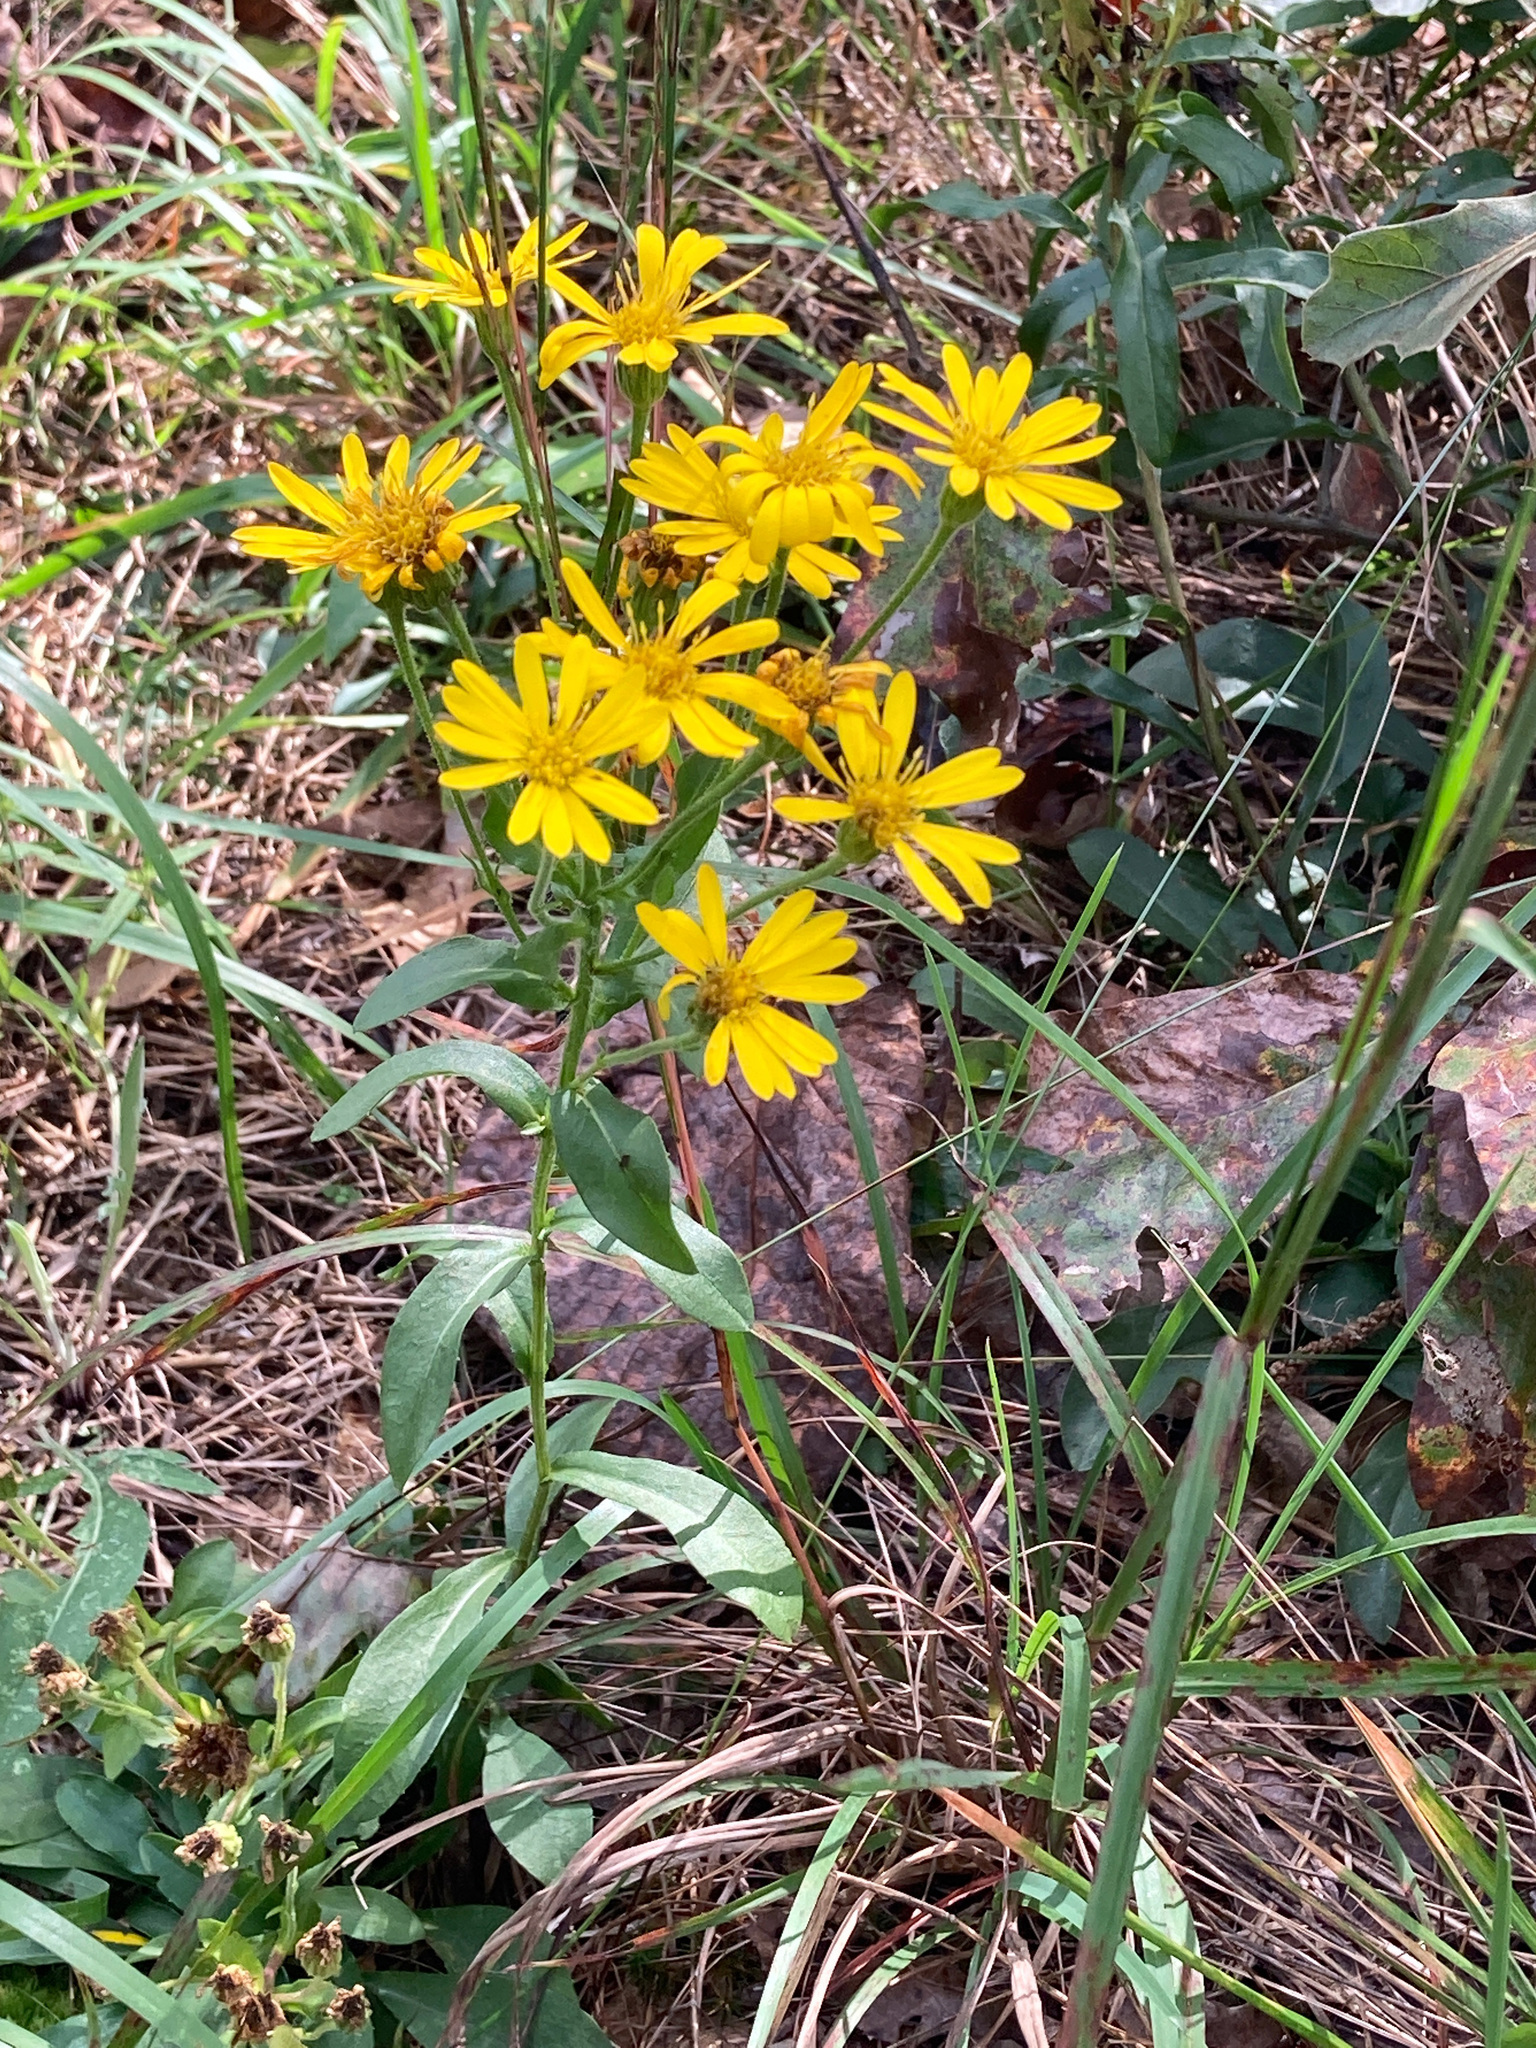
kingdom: Plantae
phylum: Tracheophyta
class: Magnoliopsida
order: Asterales
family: Asteraceae
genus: Chrysopsis
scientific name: Chrysopsis mariana
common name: Maryland golden-aster
